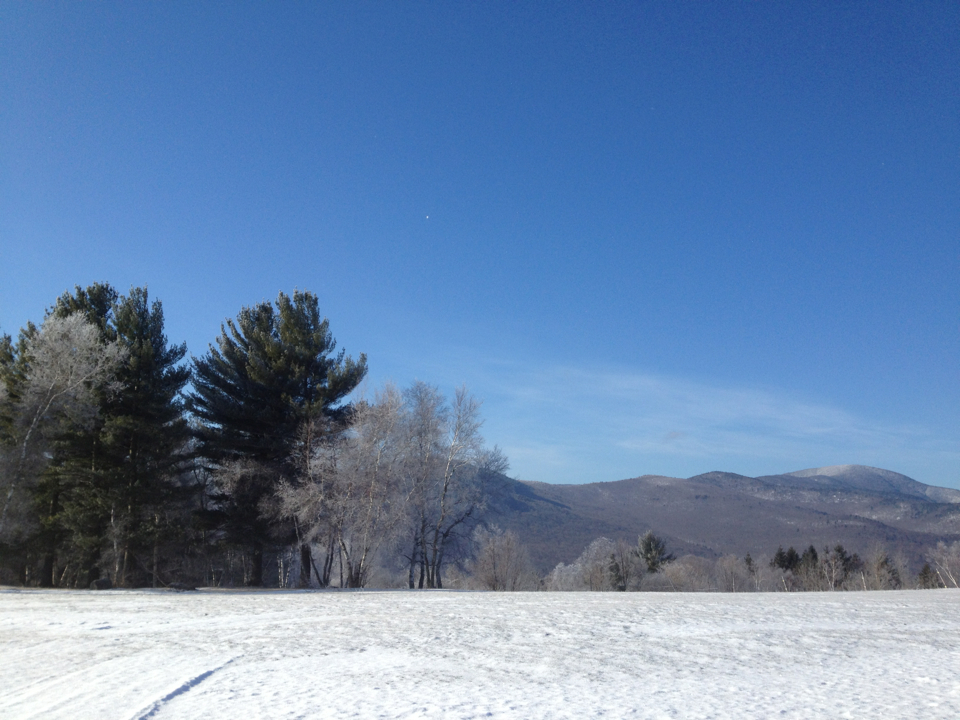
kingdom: Plantae
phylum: Tracheophyta
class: Pinopsida
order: Pinales
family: Pinaceae
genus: Pinus
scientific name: Pinus strobus
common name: Weymouth pine
